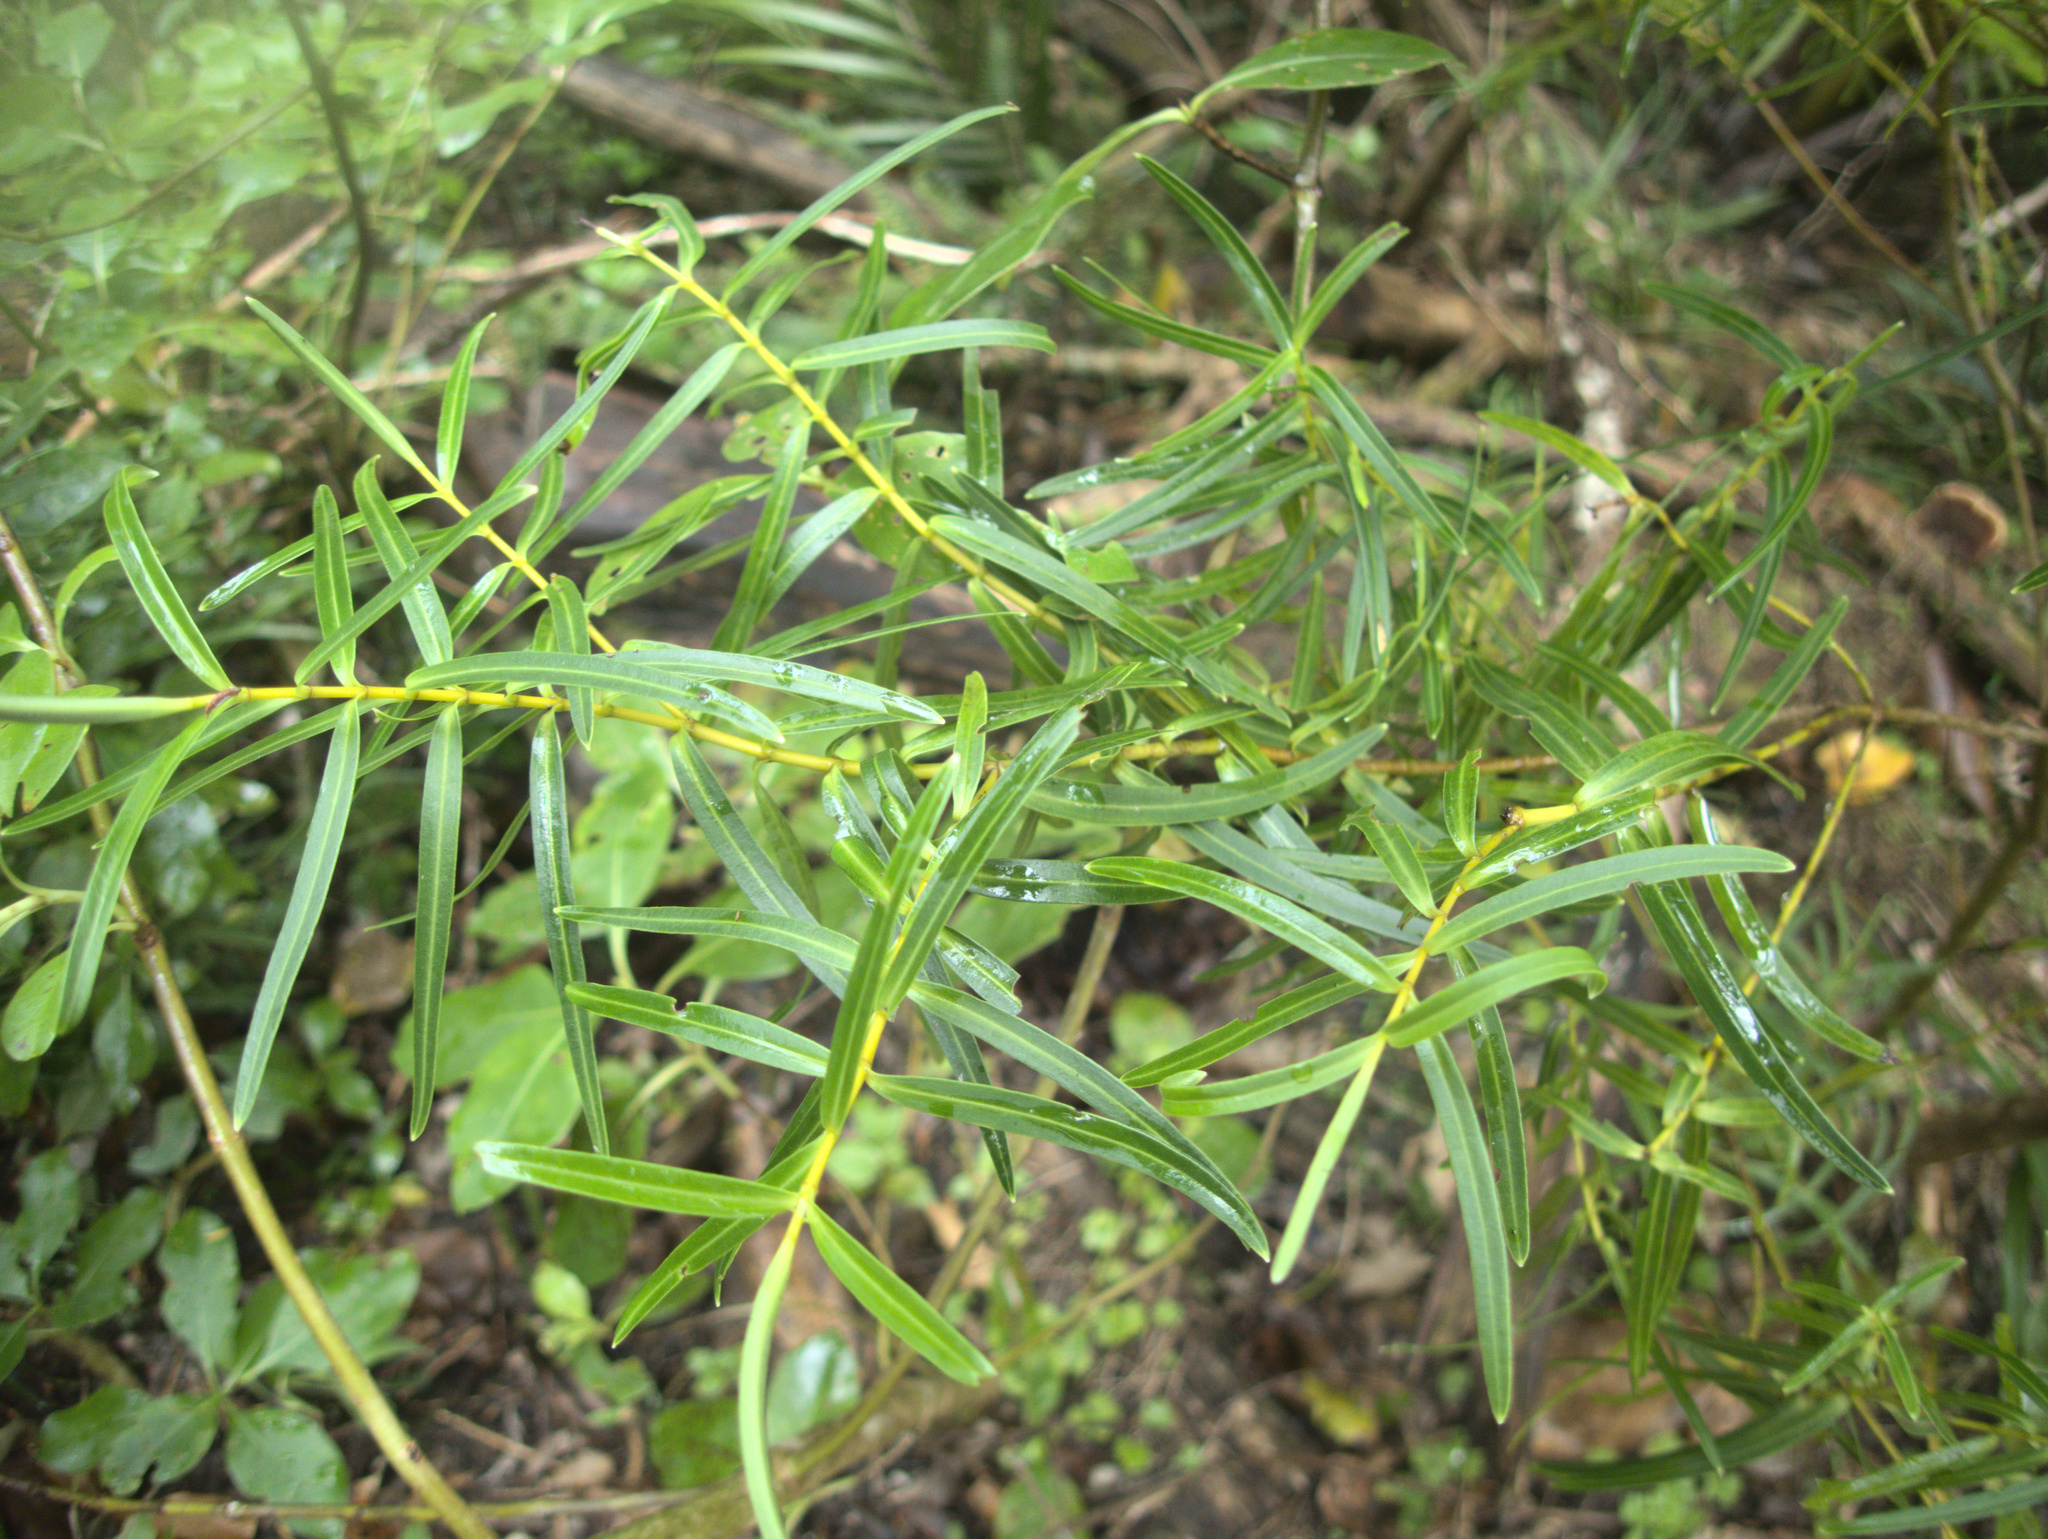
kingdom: Plantae
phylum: Tracheophyta
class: Magnoliopsida
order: Lamiales
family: Plantaginaceae
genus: Veronica
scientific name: Veronica parviflora
